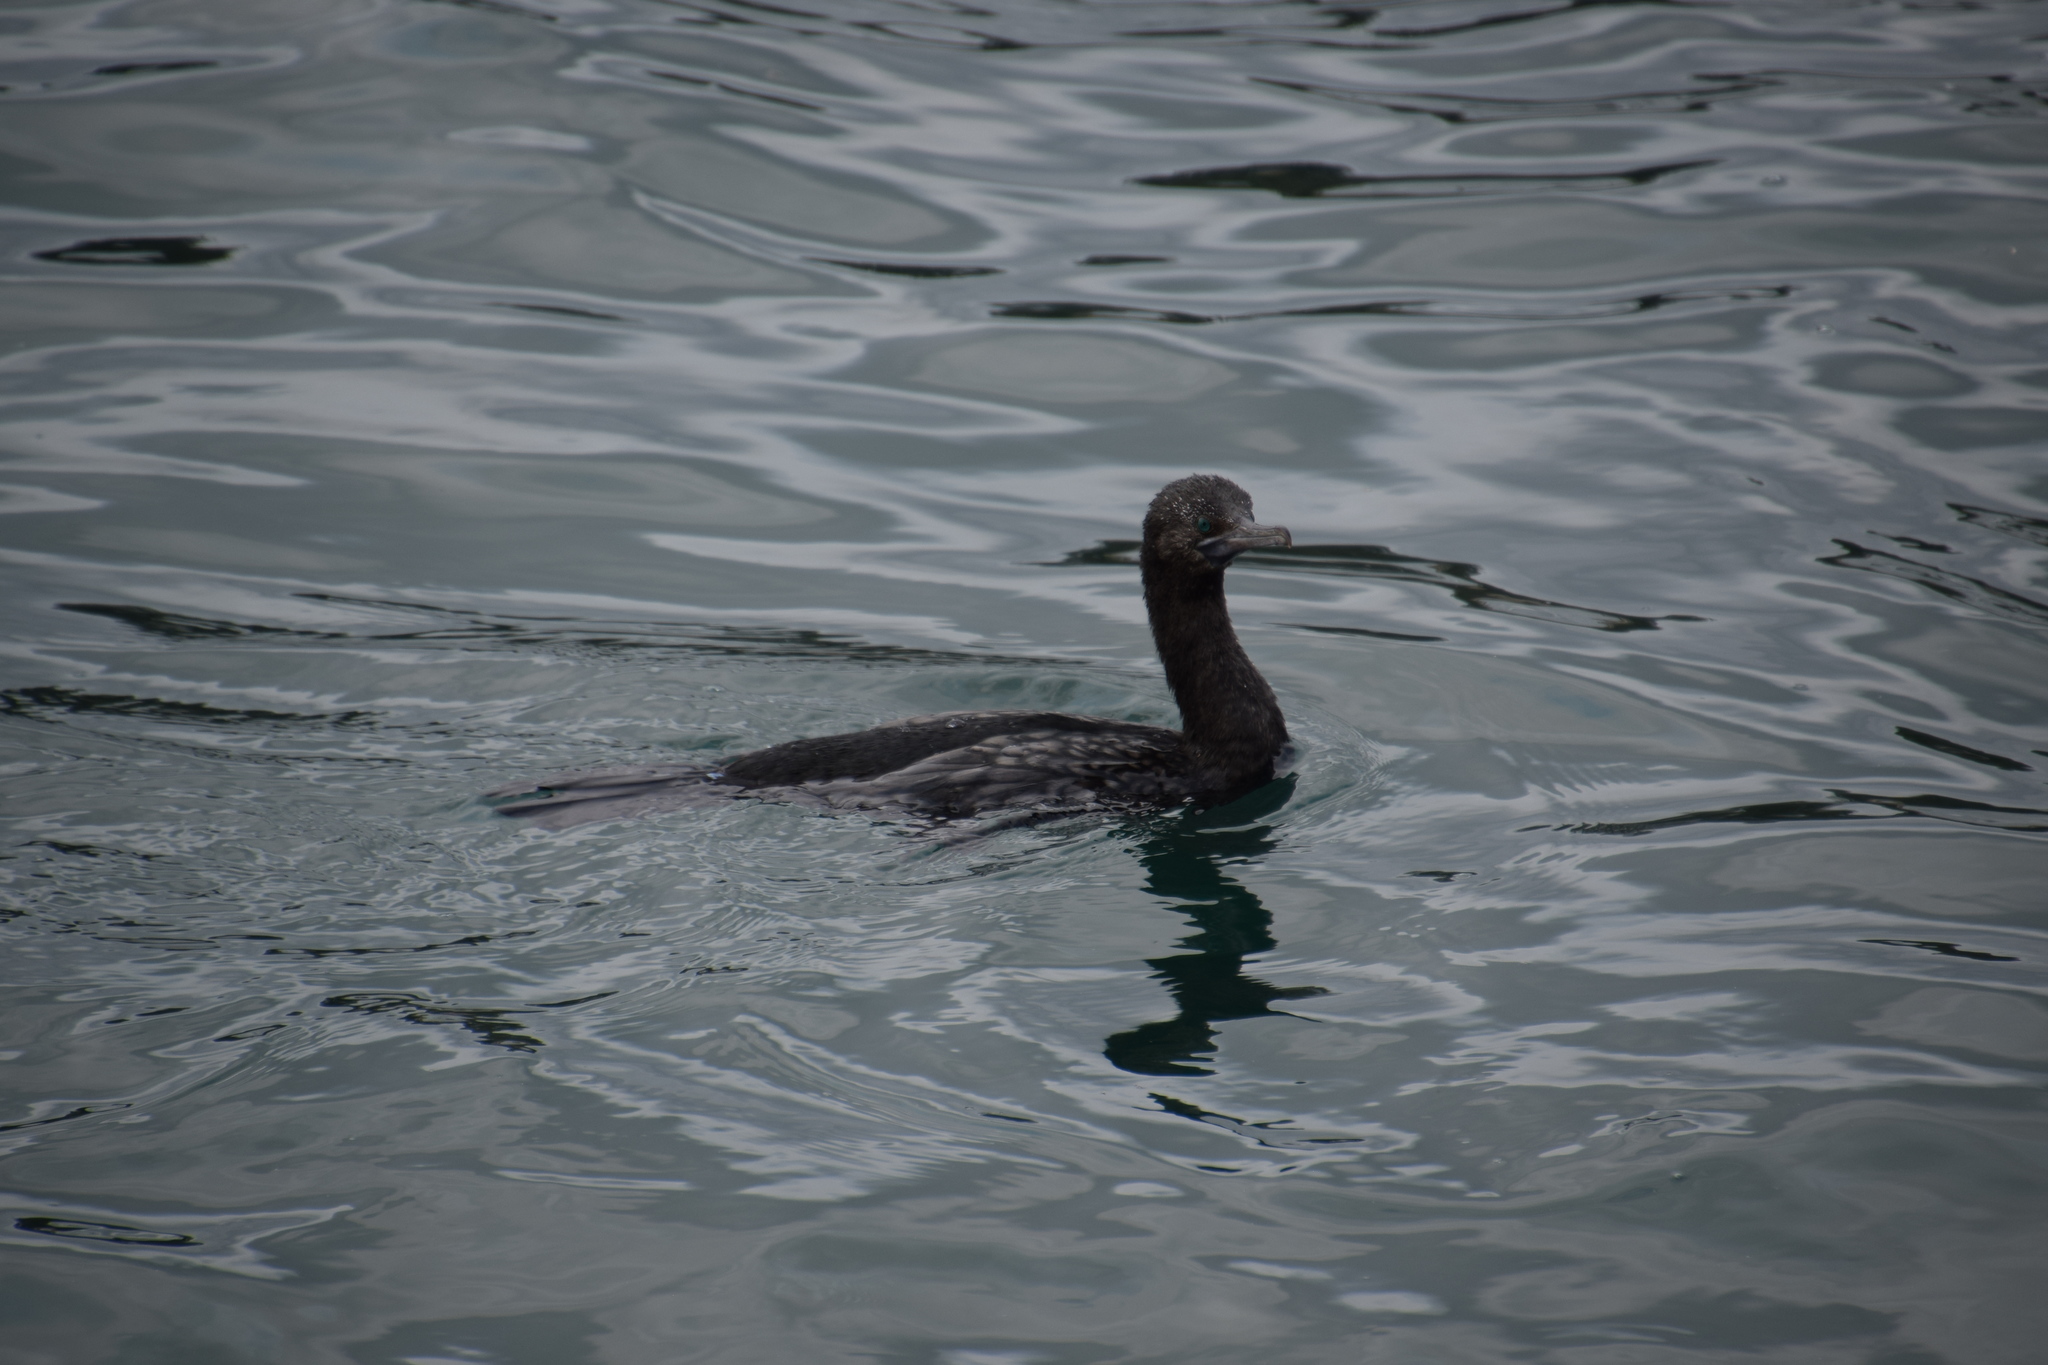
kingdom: Animalia
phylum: Chordata
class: Aves
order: Suliformes
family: Phalacrocoracidae
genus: Phalacrocorax
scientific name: Phalacrocorax sulcirostris
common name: Little black cormorant
